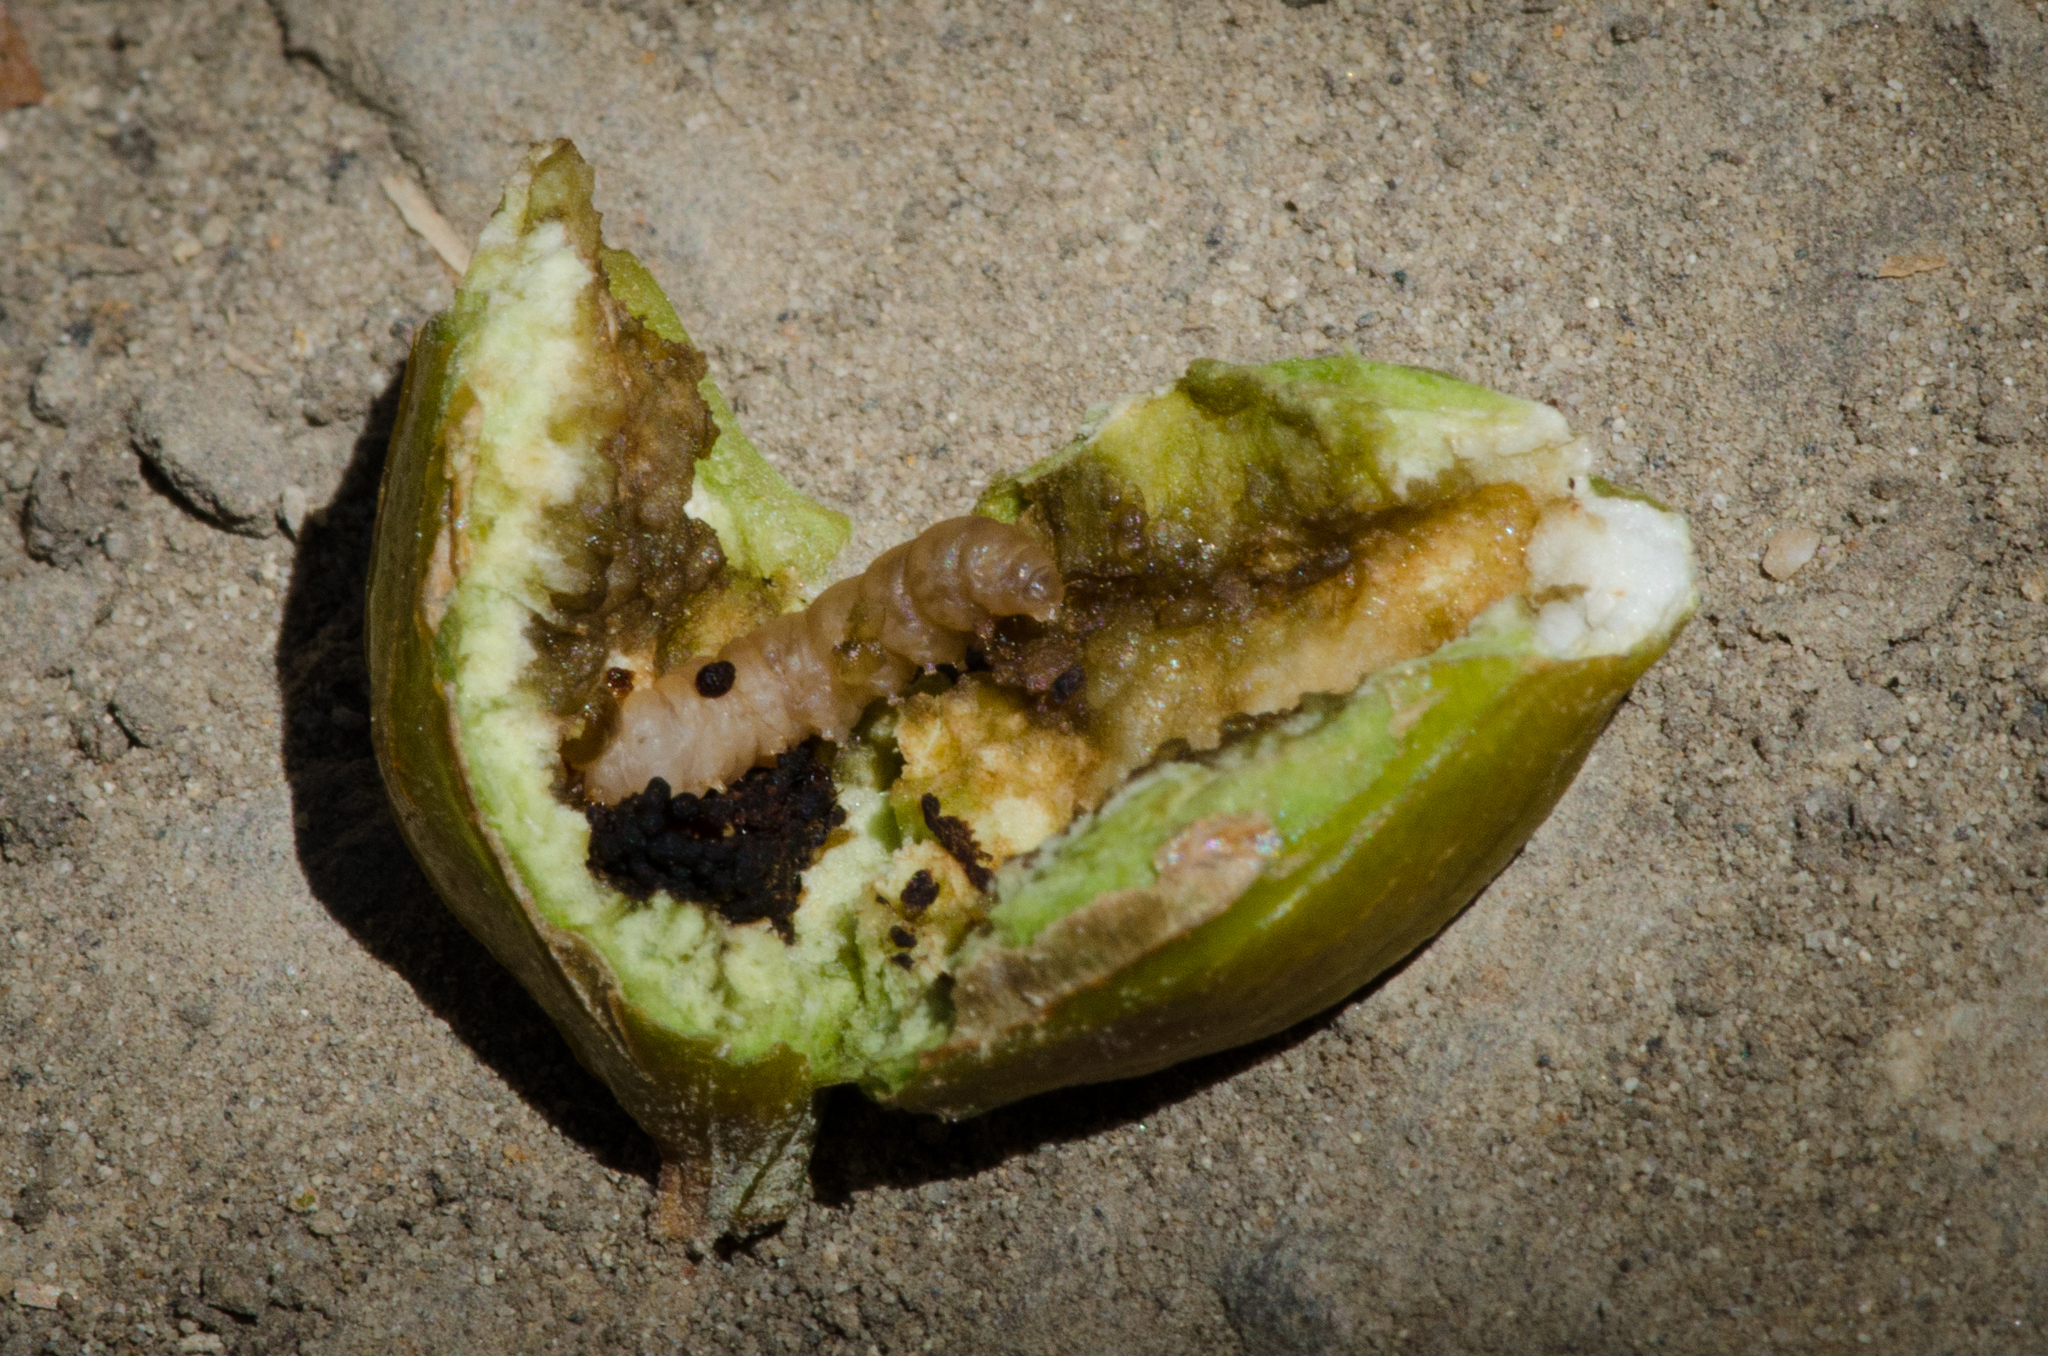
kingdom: Animalia
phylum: Arthropoda
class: Insecta
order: Lepidoptera
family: Gelechiidae
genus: Gnorimoschema
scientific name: Gnorimoschema baccharisella
